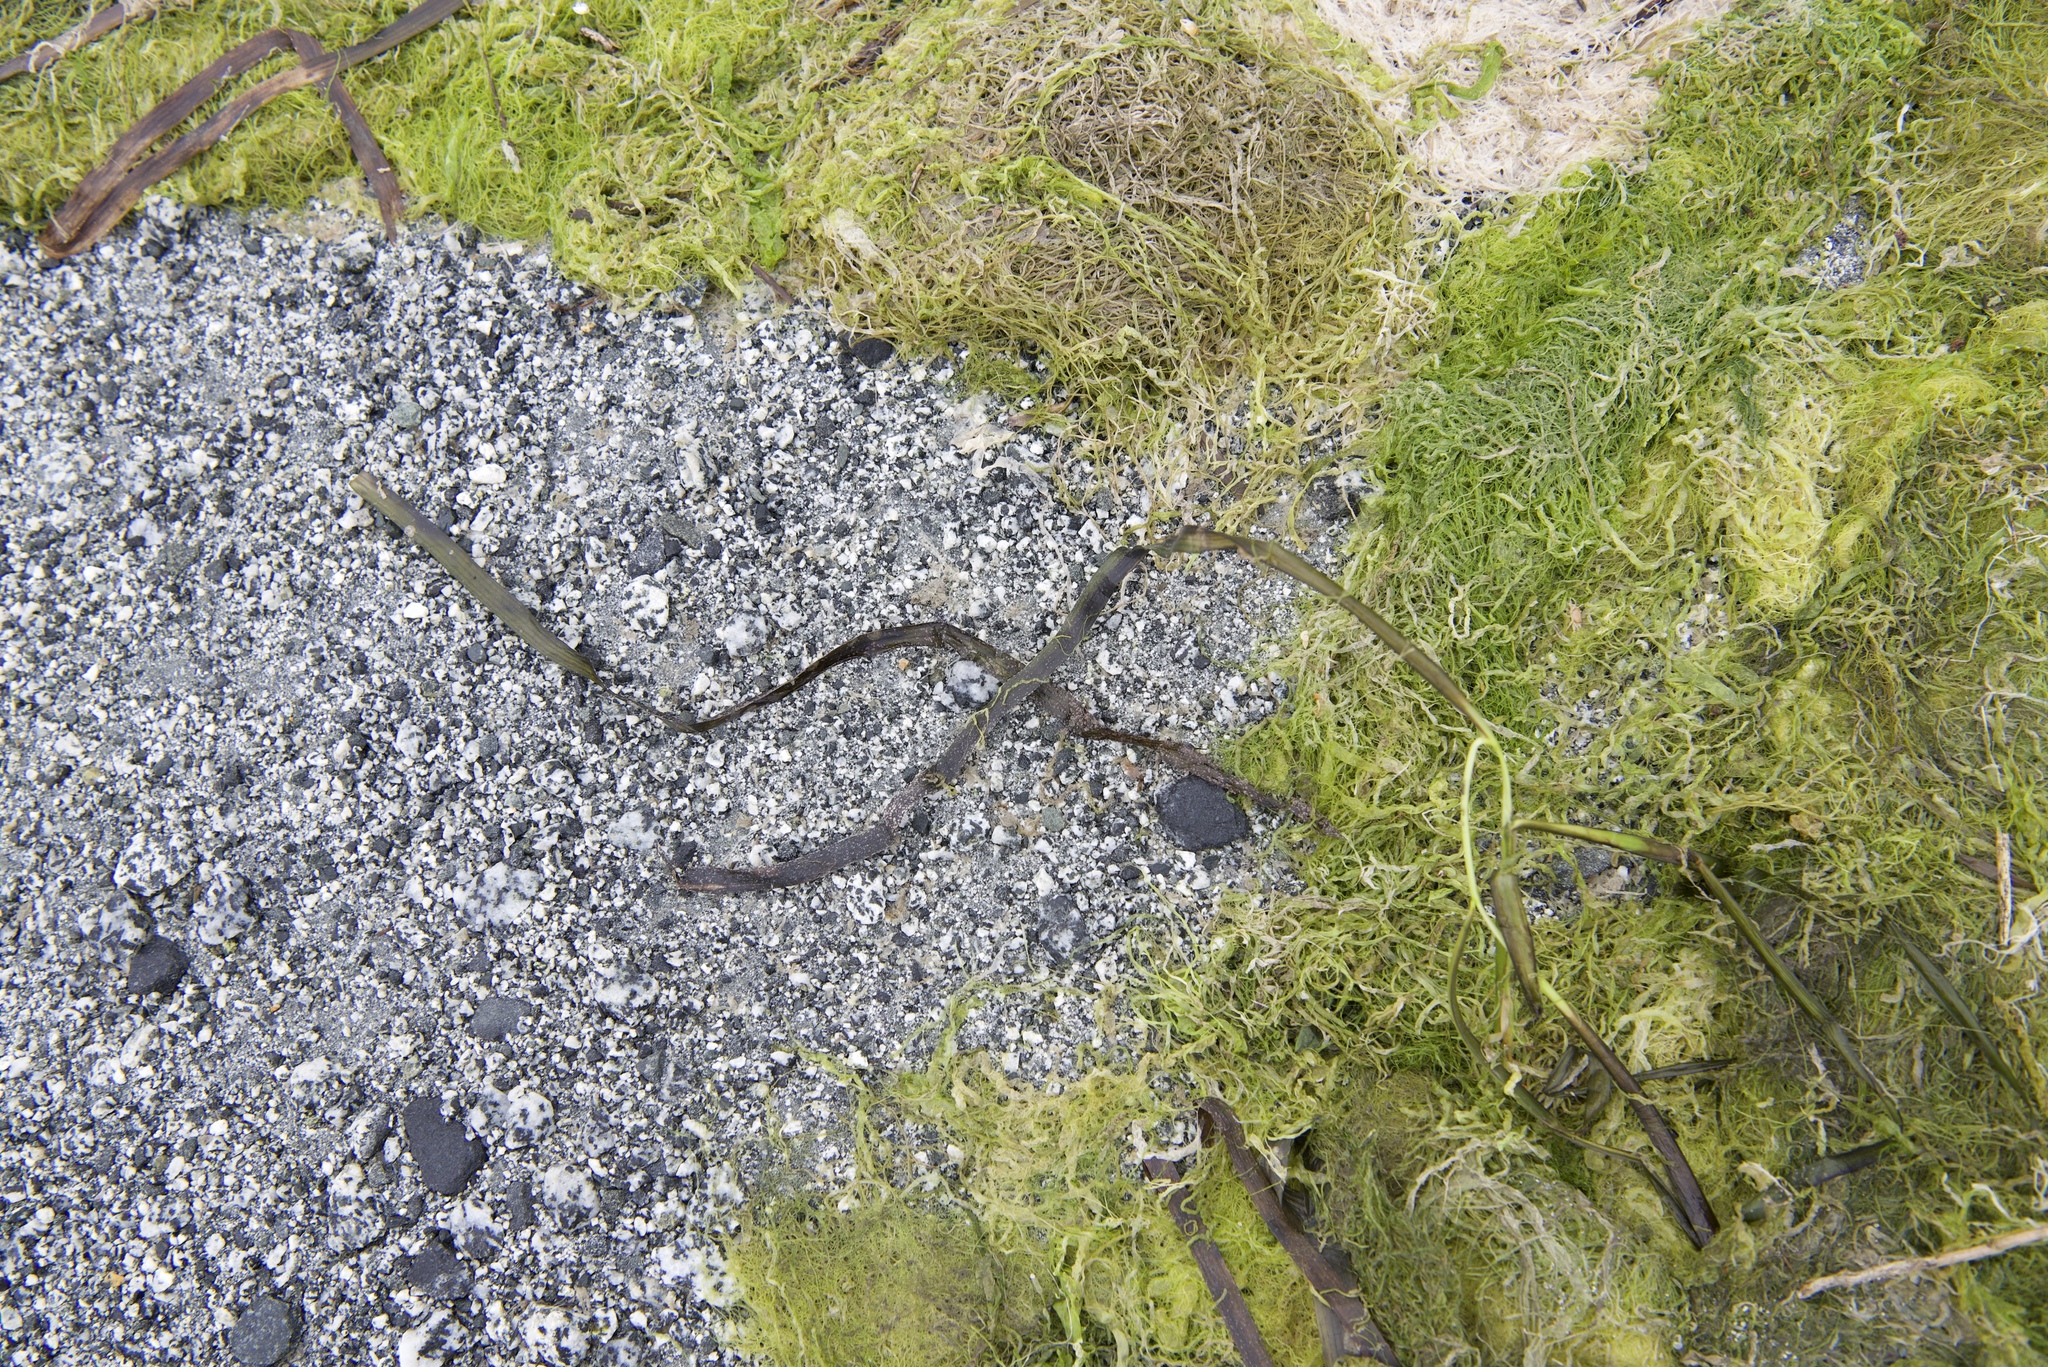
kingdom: Plantae
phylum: Tracheophyta
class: Liliopsida
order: Alismatales
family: Zosteraceae
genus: Zostera
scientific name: Zostera marina
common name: Eelgrass
